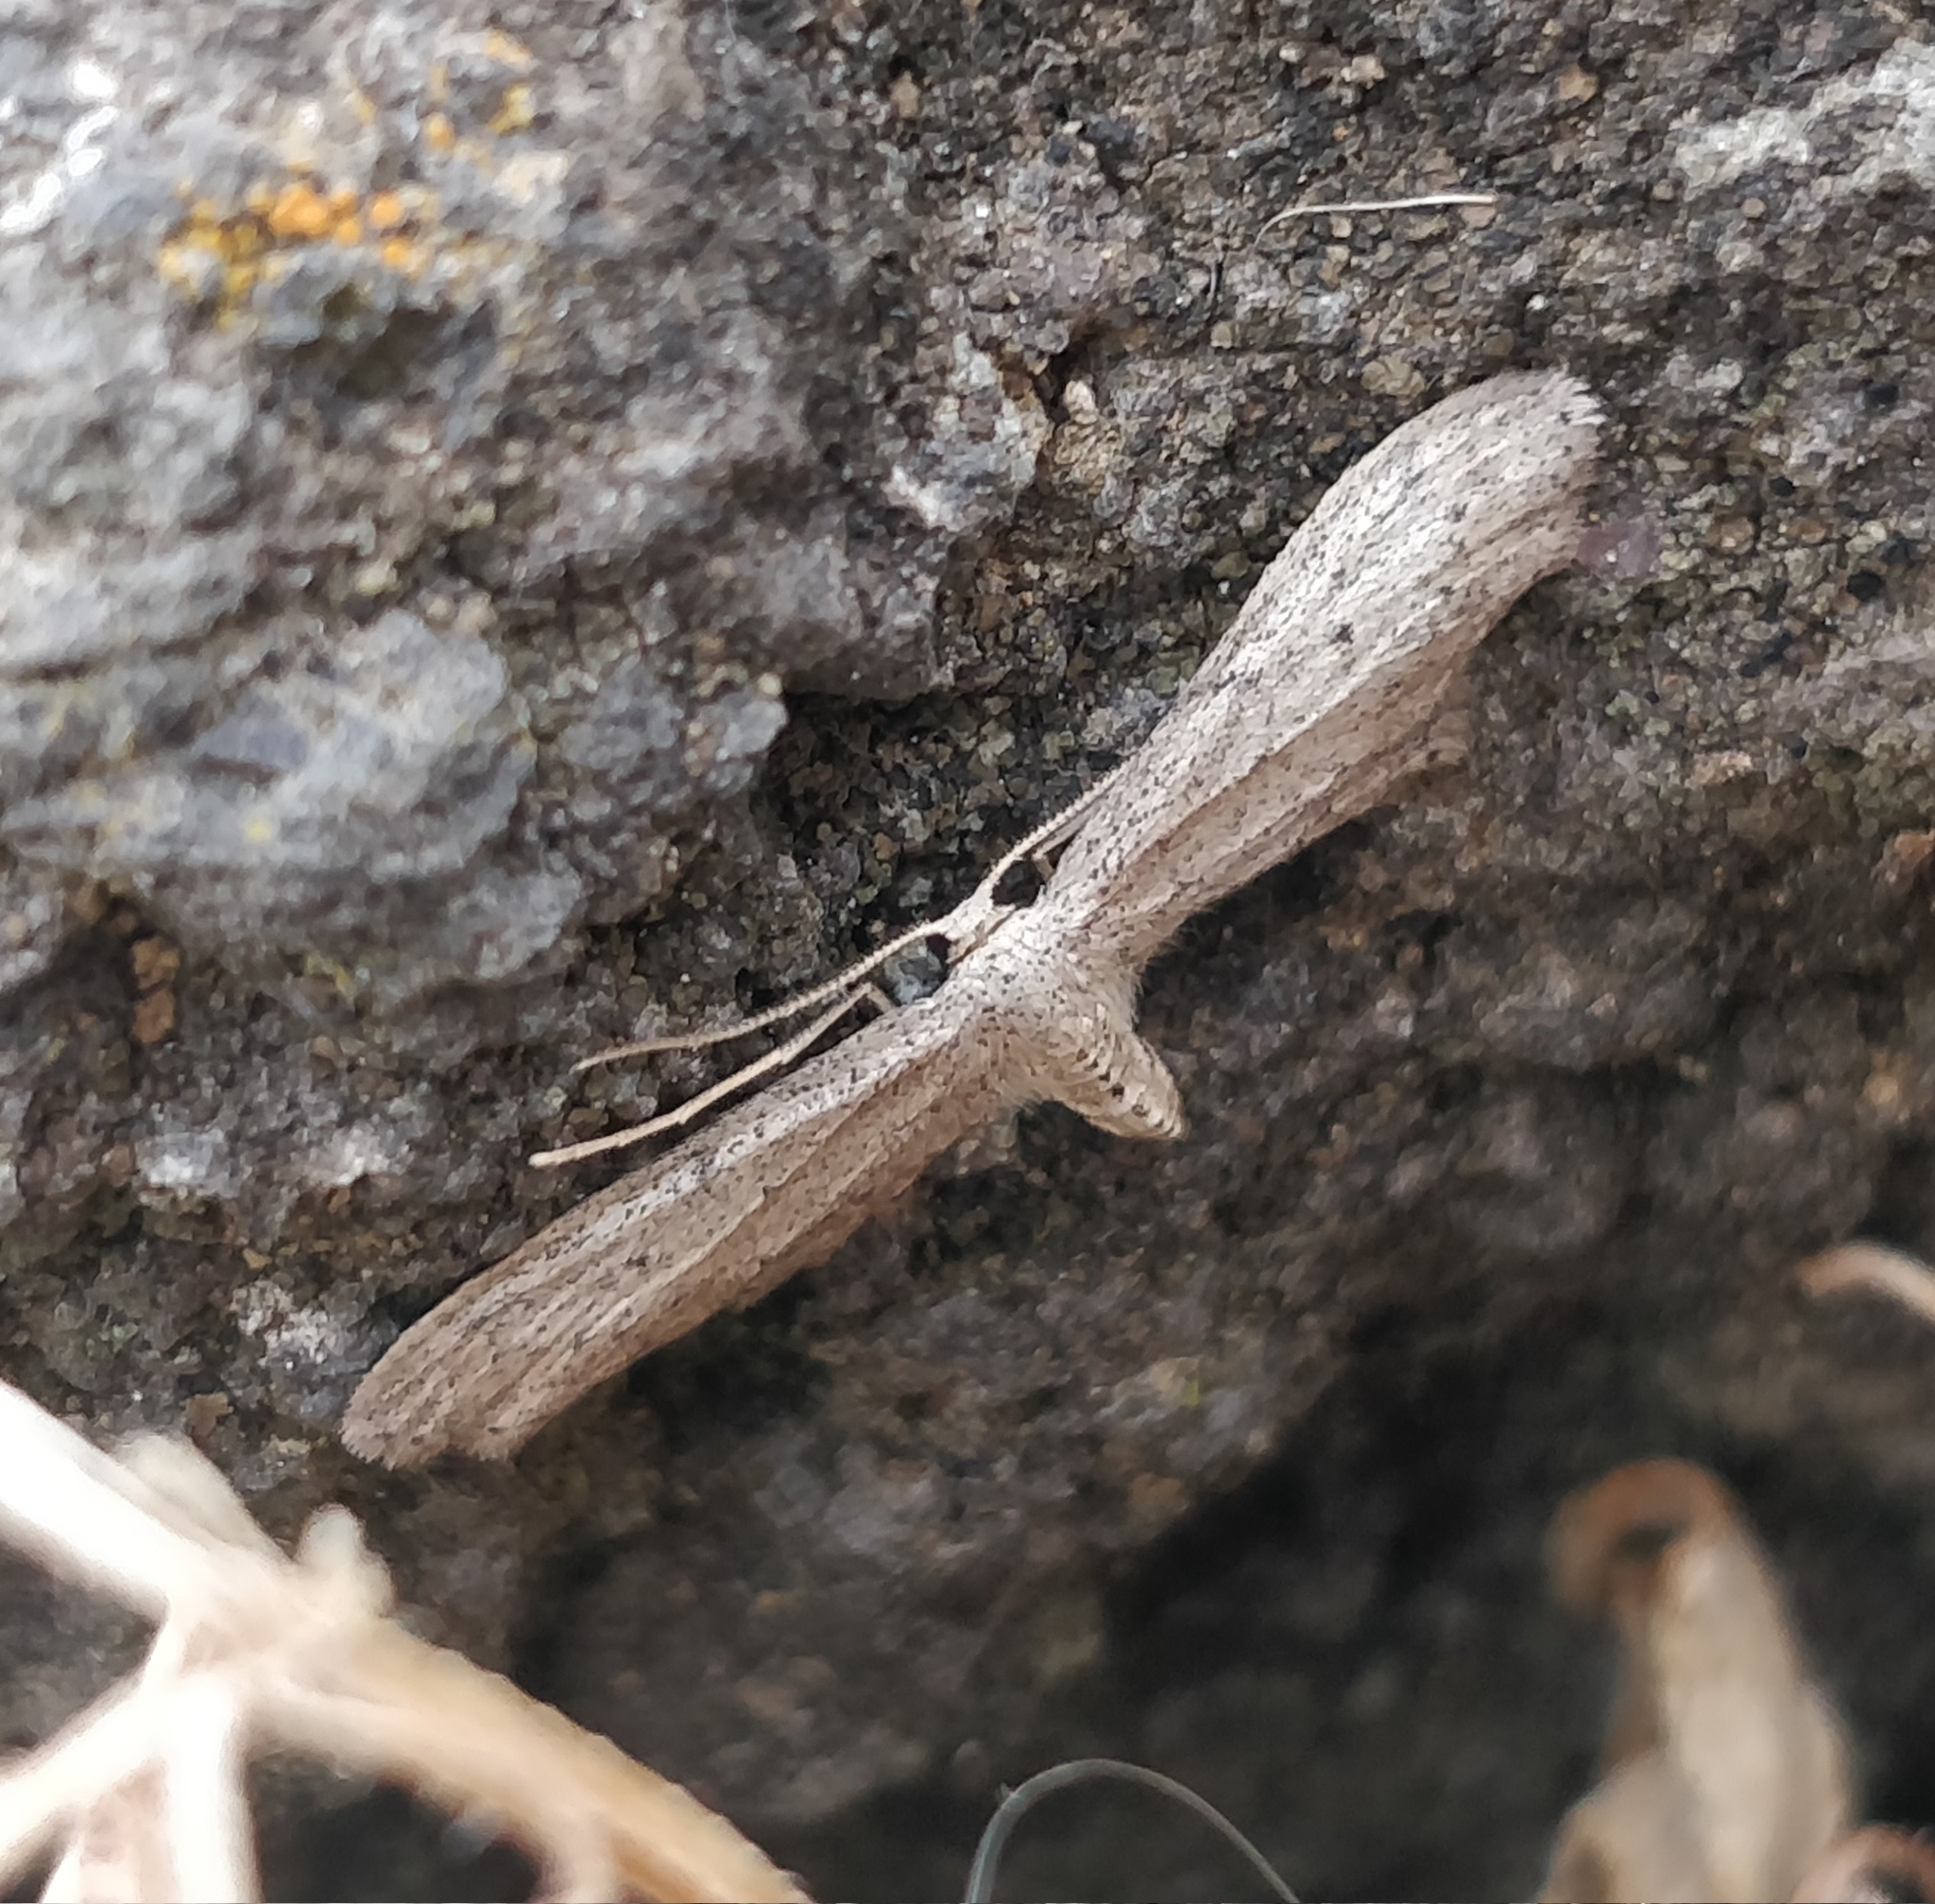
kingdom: Animalia
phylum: Arthropoda
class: Insecta
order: Lepidoptera
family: Geometridae
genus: Idaea
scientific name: Idaea longaria
